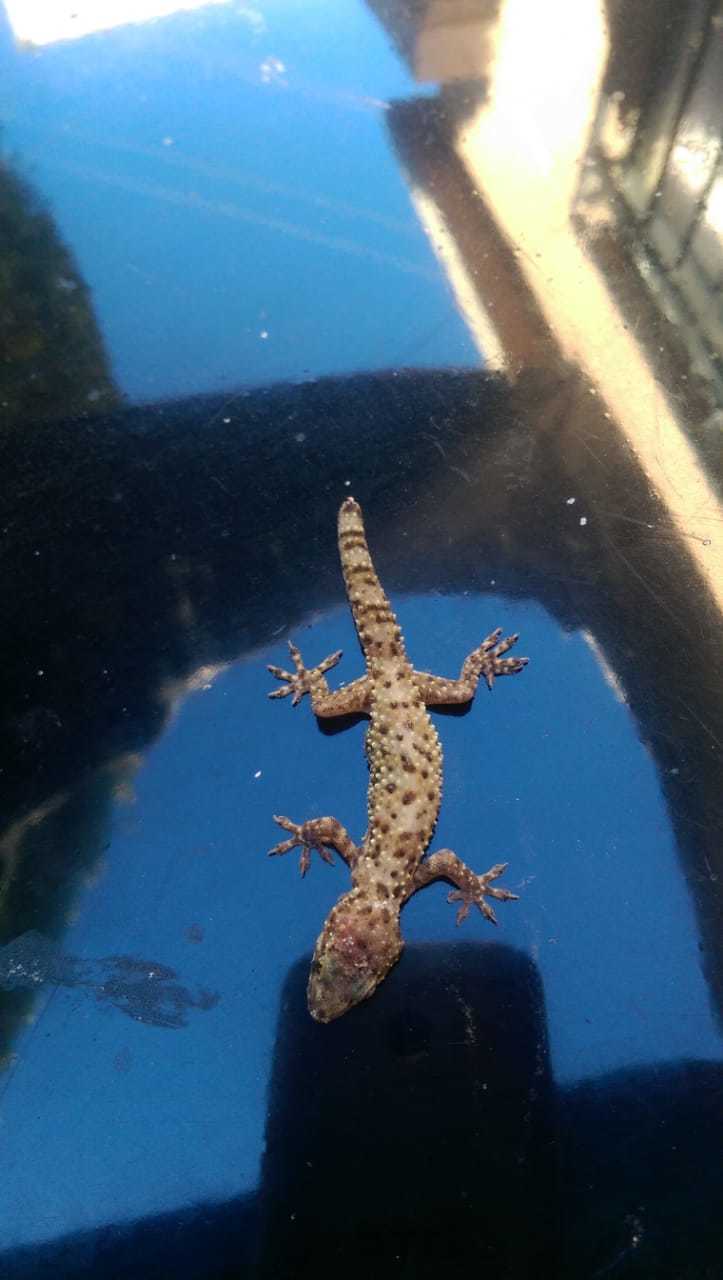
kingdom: Animalia
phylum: Chordata
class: Squamata
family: Gekkonidae
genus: Hemidactylus
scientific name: Hemidactylus turcicus
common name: Turkish gecko
